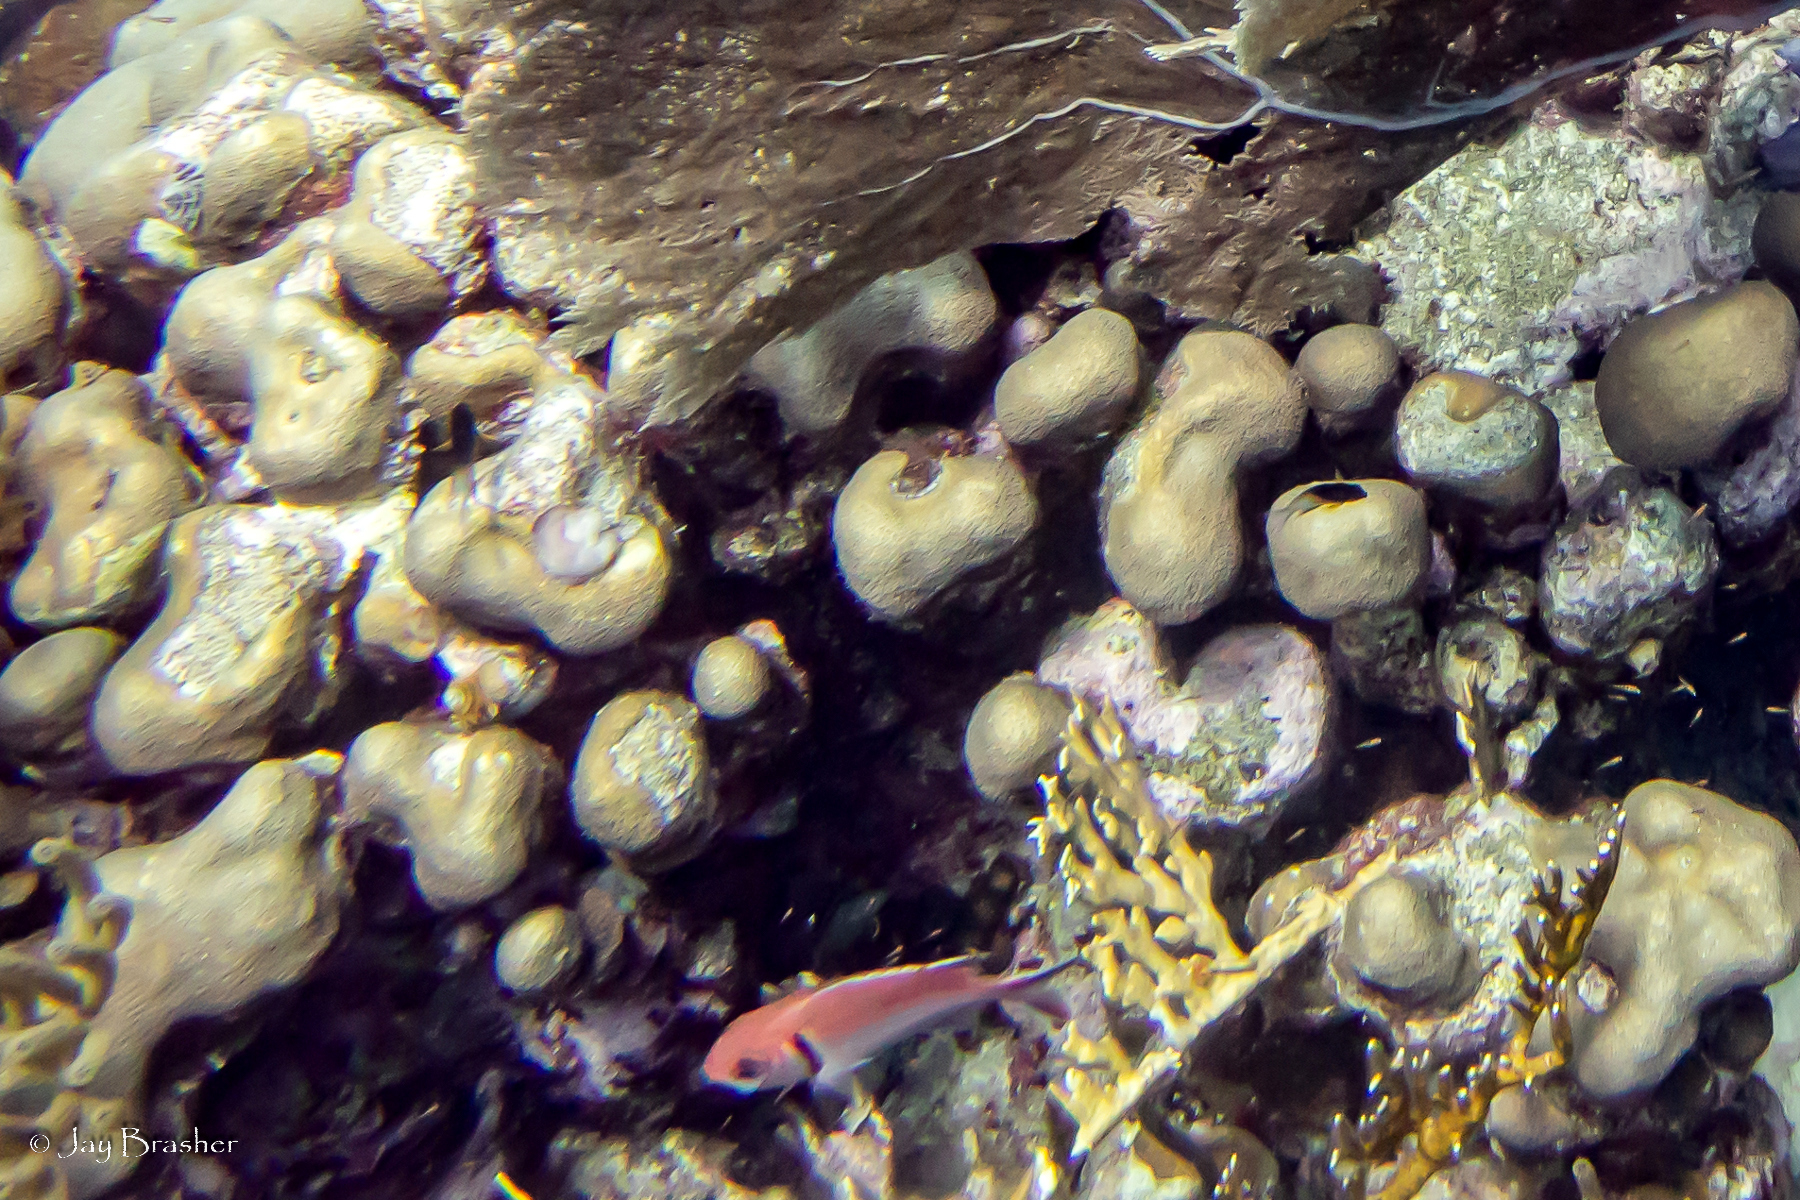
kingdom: Animalia
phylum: Cnidaria
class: Anthozoa
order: Scleractinia
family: Merulinidae
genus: Orbicella
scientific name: Orbicella annularis
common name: Boulder star coral
